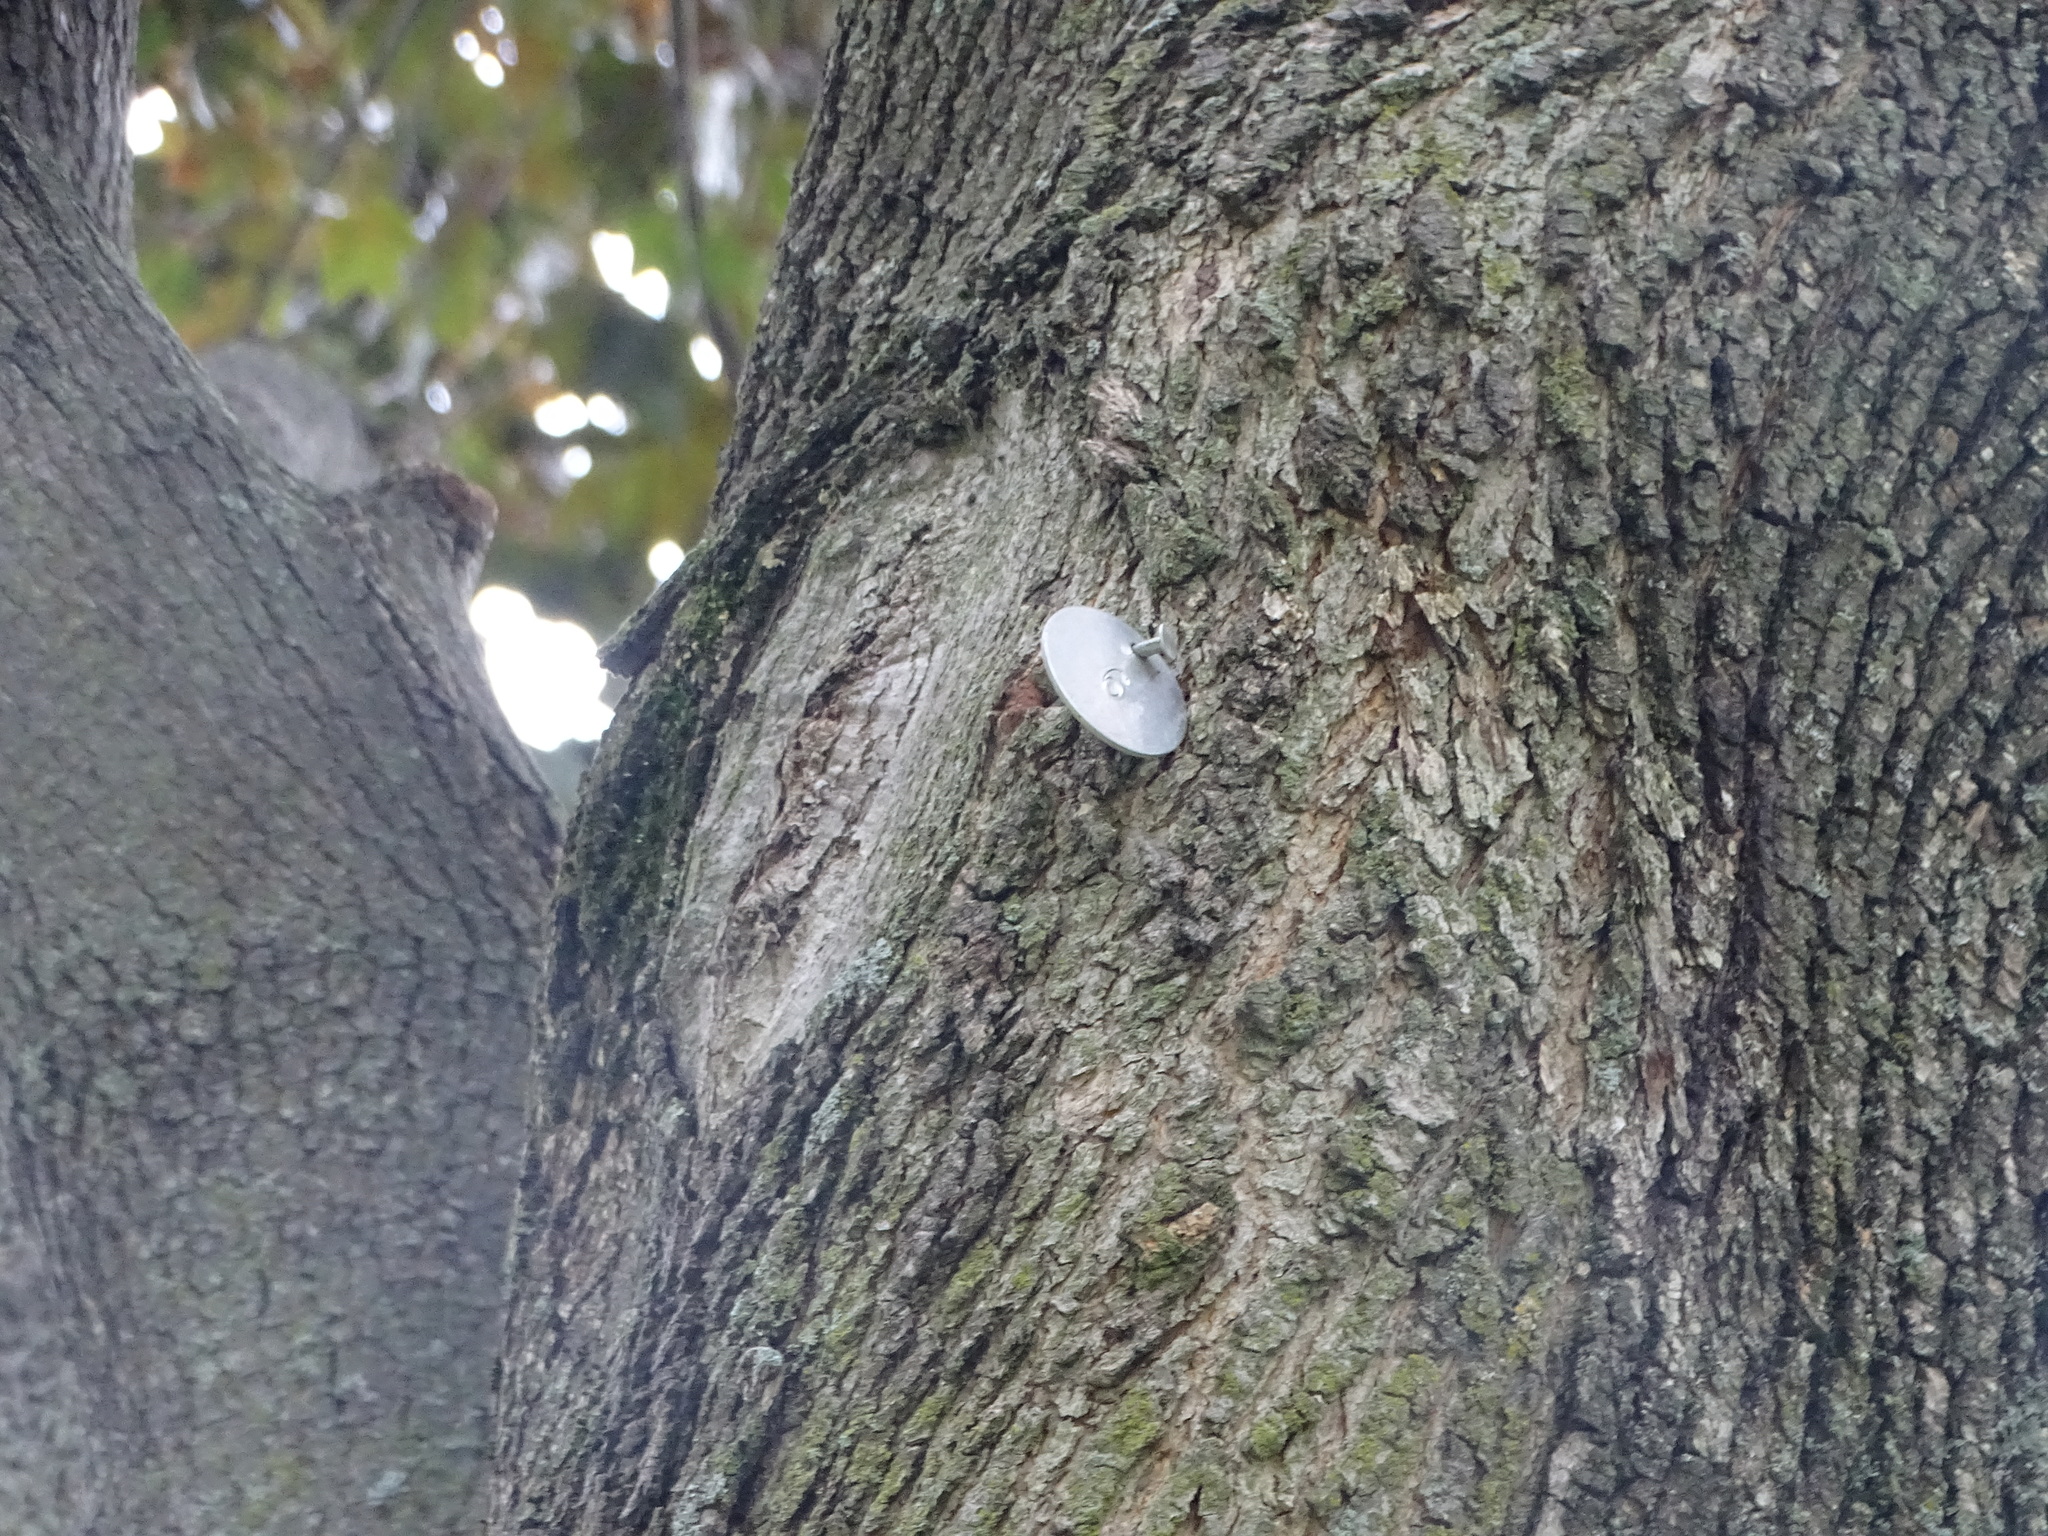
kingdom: Plantae
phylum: Tracheophyta
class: Magnoliopsida
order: Sapindales
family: Sapindaceae
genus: Acer
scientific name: Acer platanoides
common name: Norway maple
